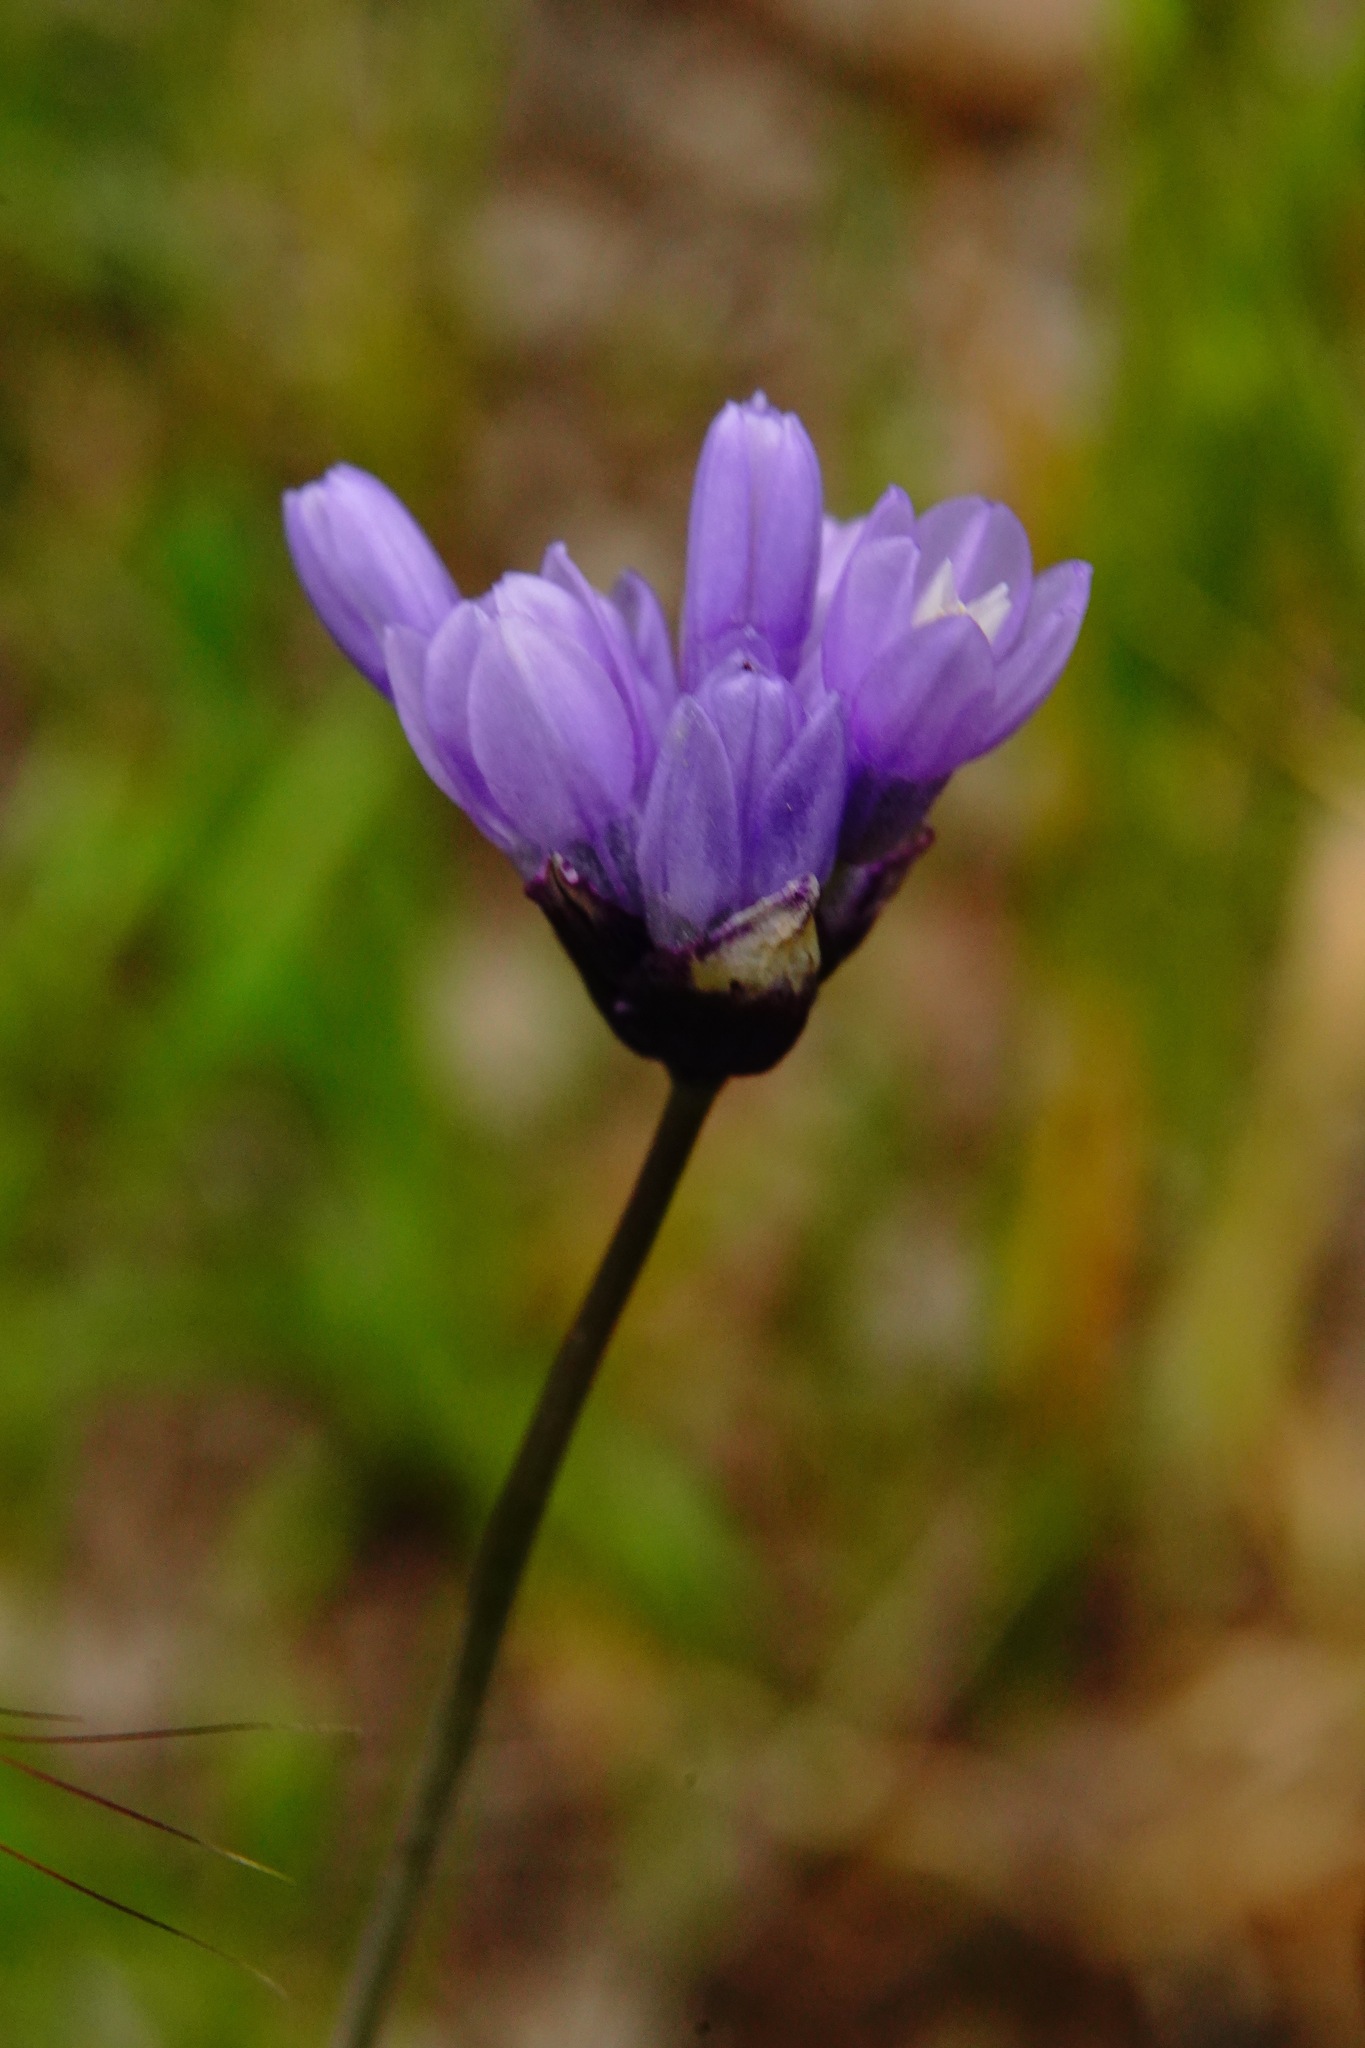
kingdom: Plantae
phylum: Tracheophyta
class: Liliopsida
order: Asparagales
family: Asparagaceae
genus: Dichelostemma
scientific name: Dichelostemma congestum
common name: Fork-tooth ookow
